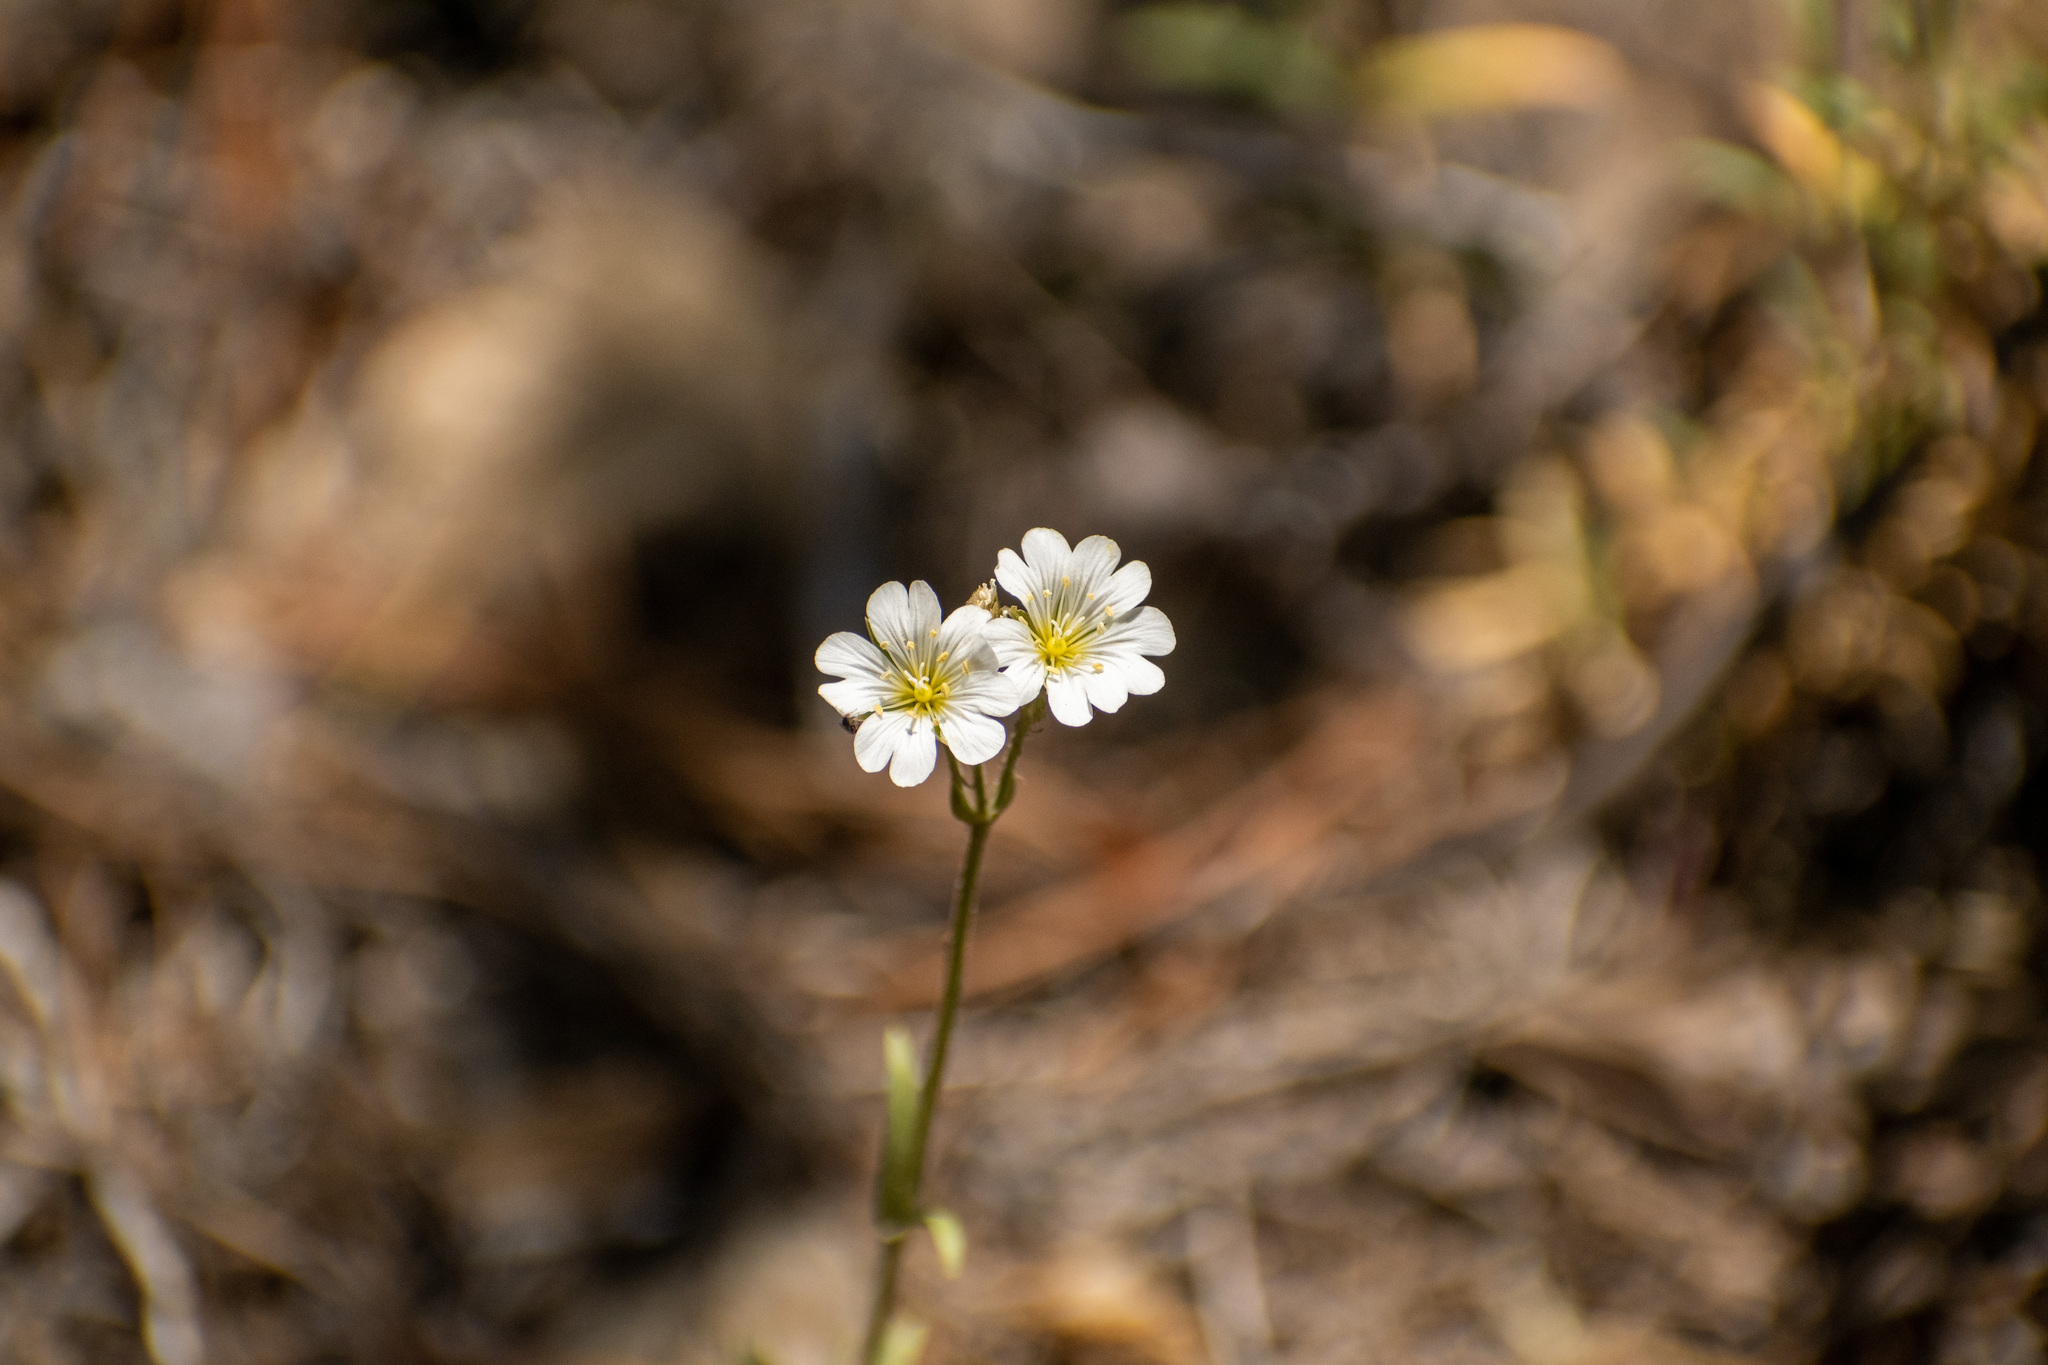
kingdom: Plantae
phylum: Tracheophyta
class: Magnoliopsida
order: Caryophyllales
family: Caryophyllaceae
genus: Cerastium
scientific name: Cerastium arvense
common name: Field mouse-ear
